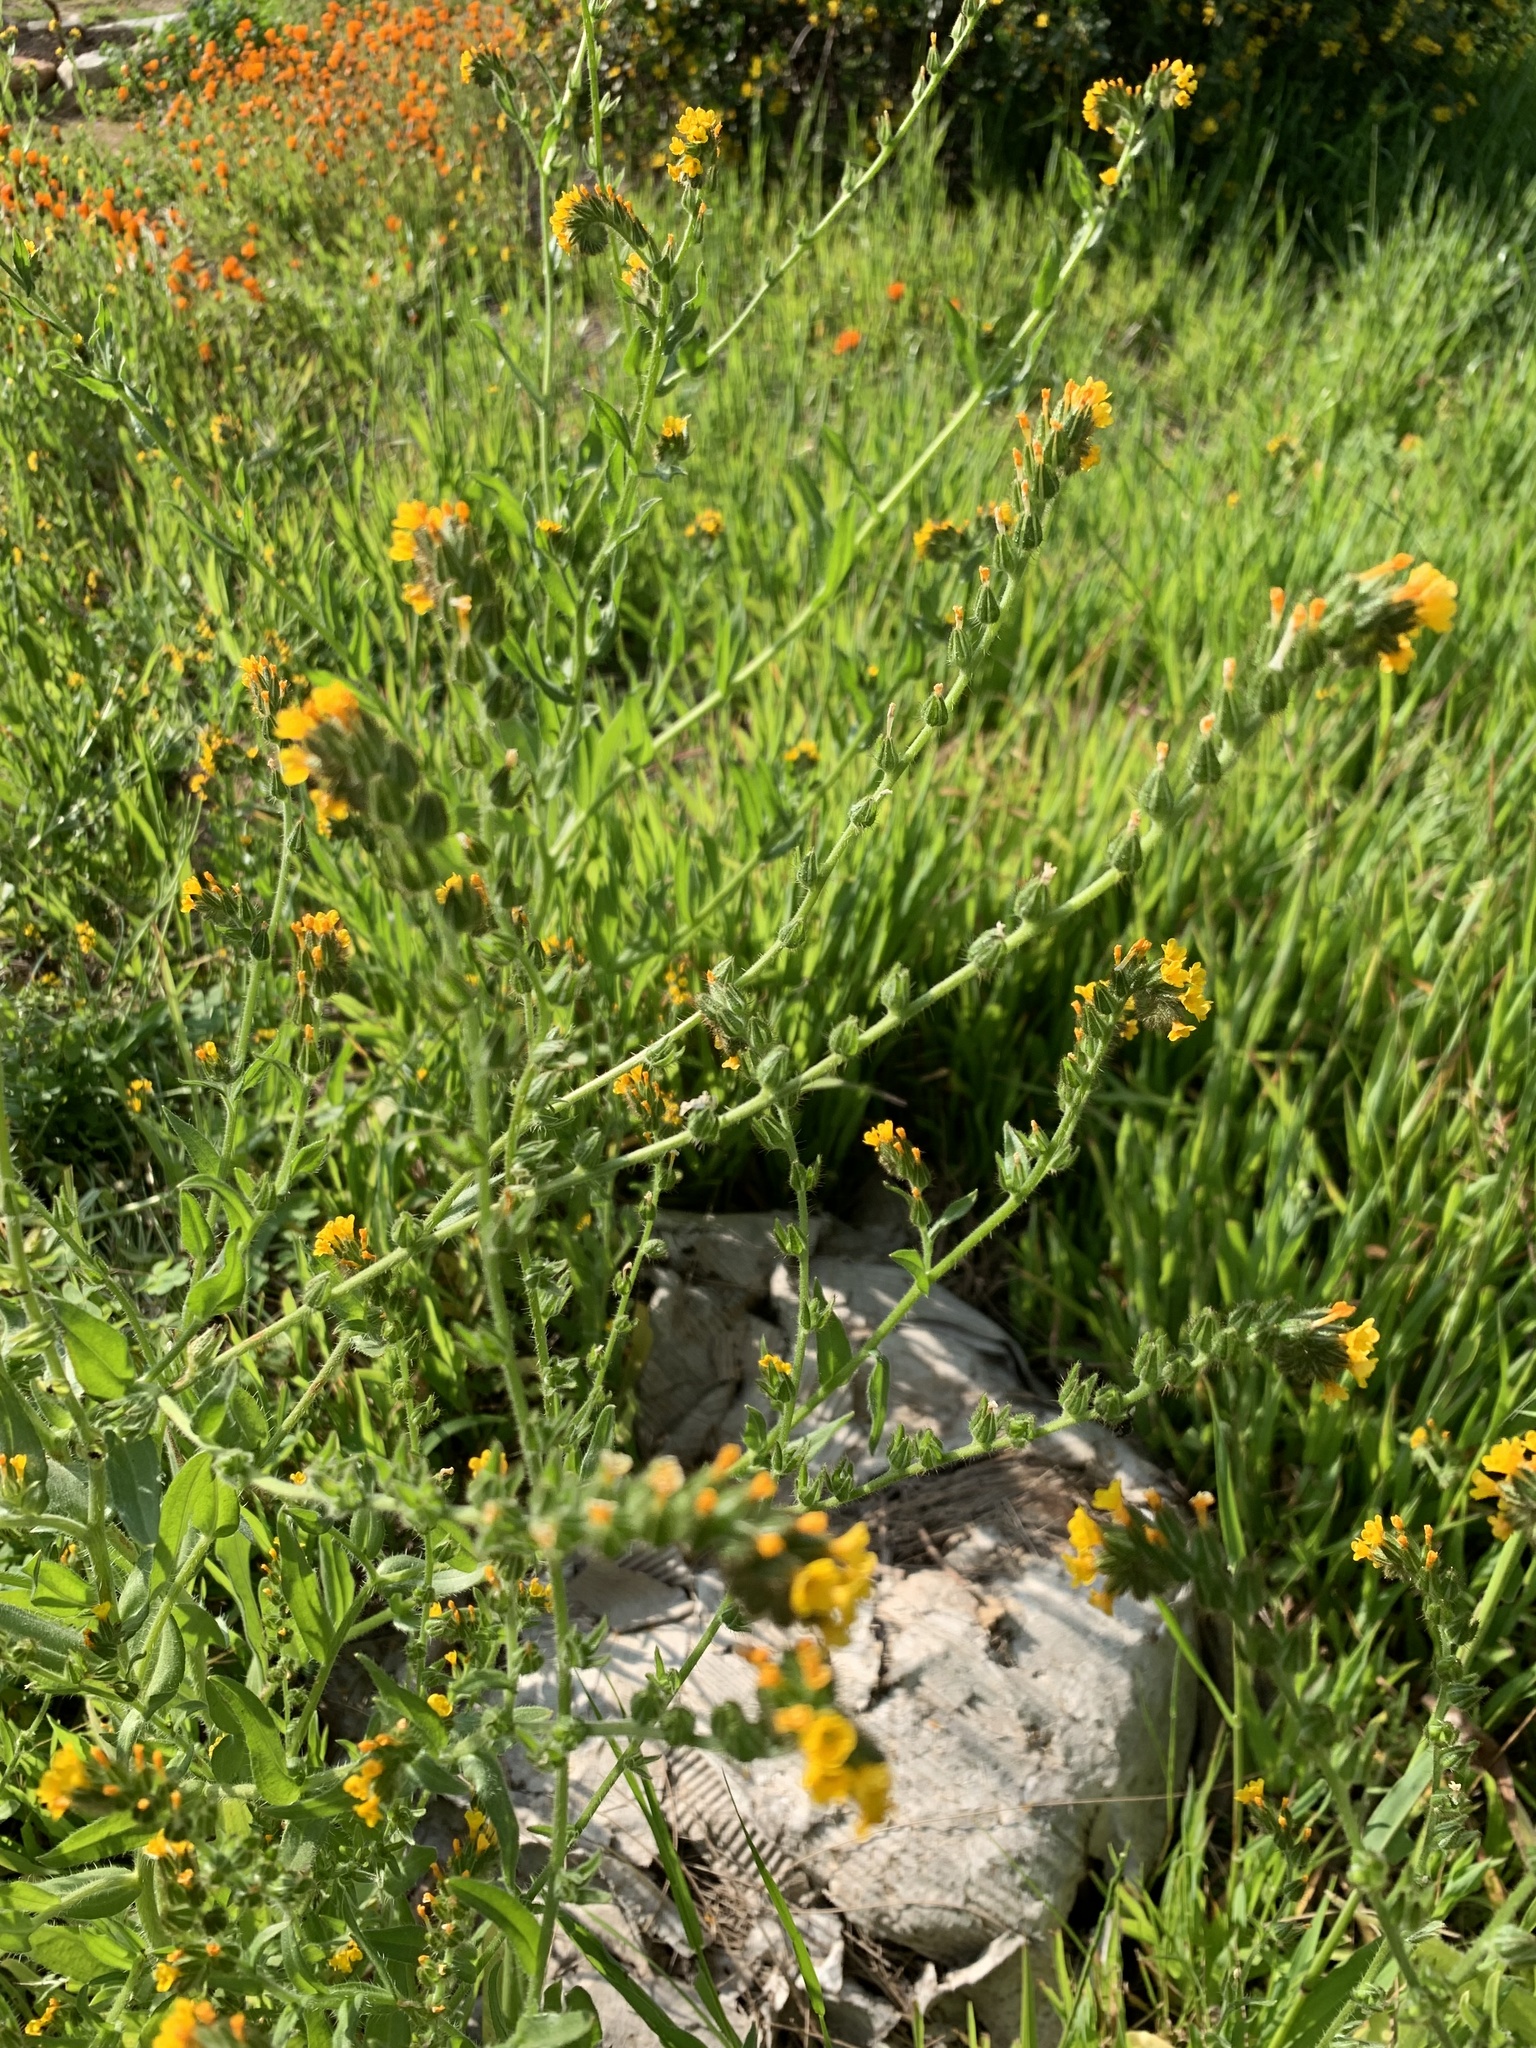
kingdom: Plantae
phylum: Tracheophyta
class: Magnoliopsida
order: Boraginales
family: Boraginaceae
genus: Amsinckia
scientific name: Amsinckia menziesii
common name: Menzies' fiddleneck
